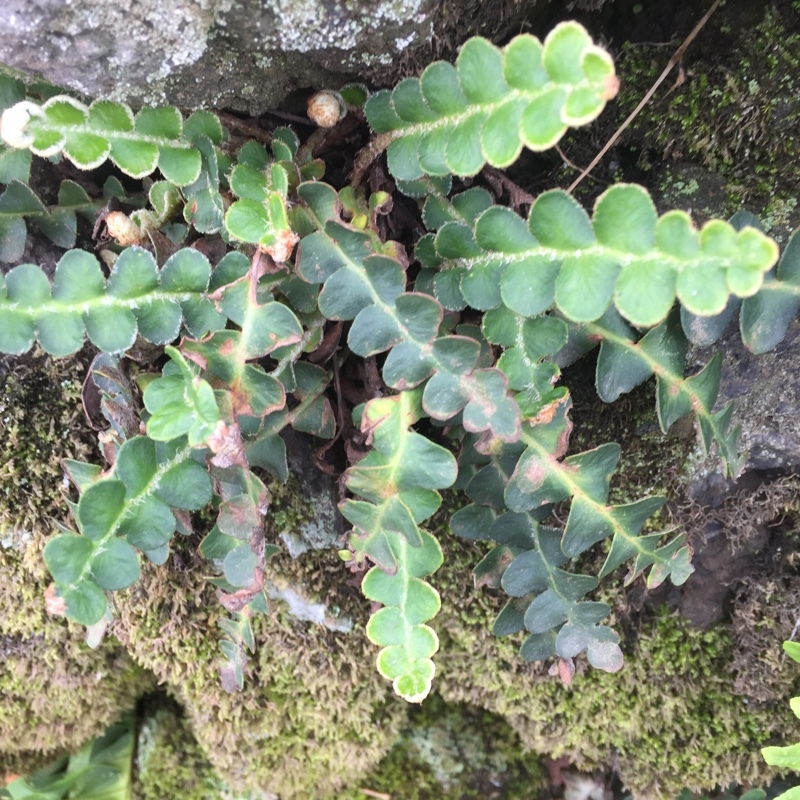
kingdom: Plantae
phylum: Tracheophyta
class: Polypodiopsida
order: Polypodiales
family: Aspleniaceae
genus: Asplenium
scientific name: Asplenium ceterach
